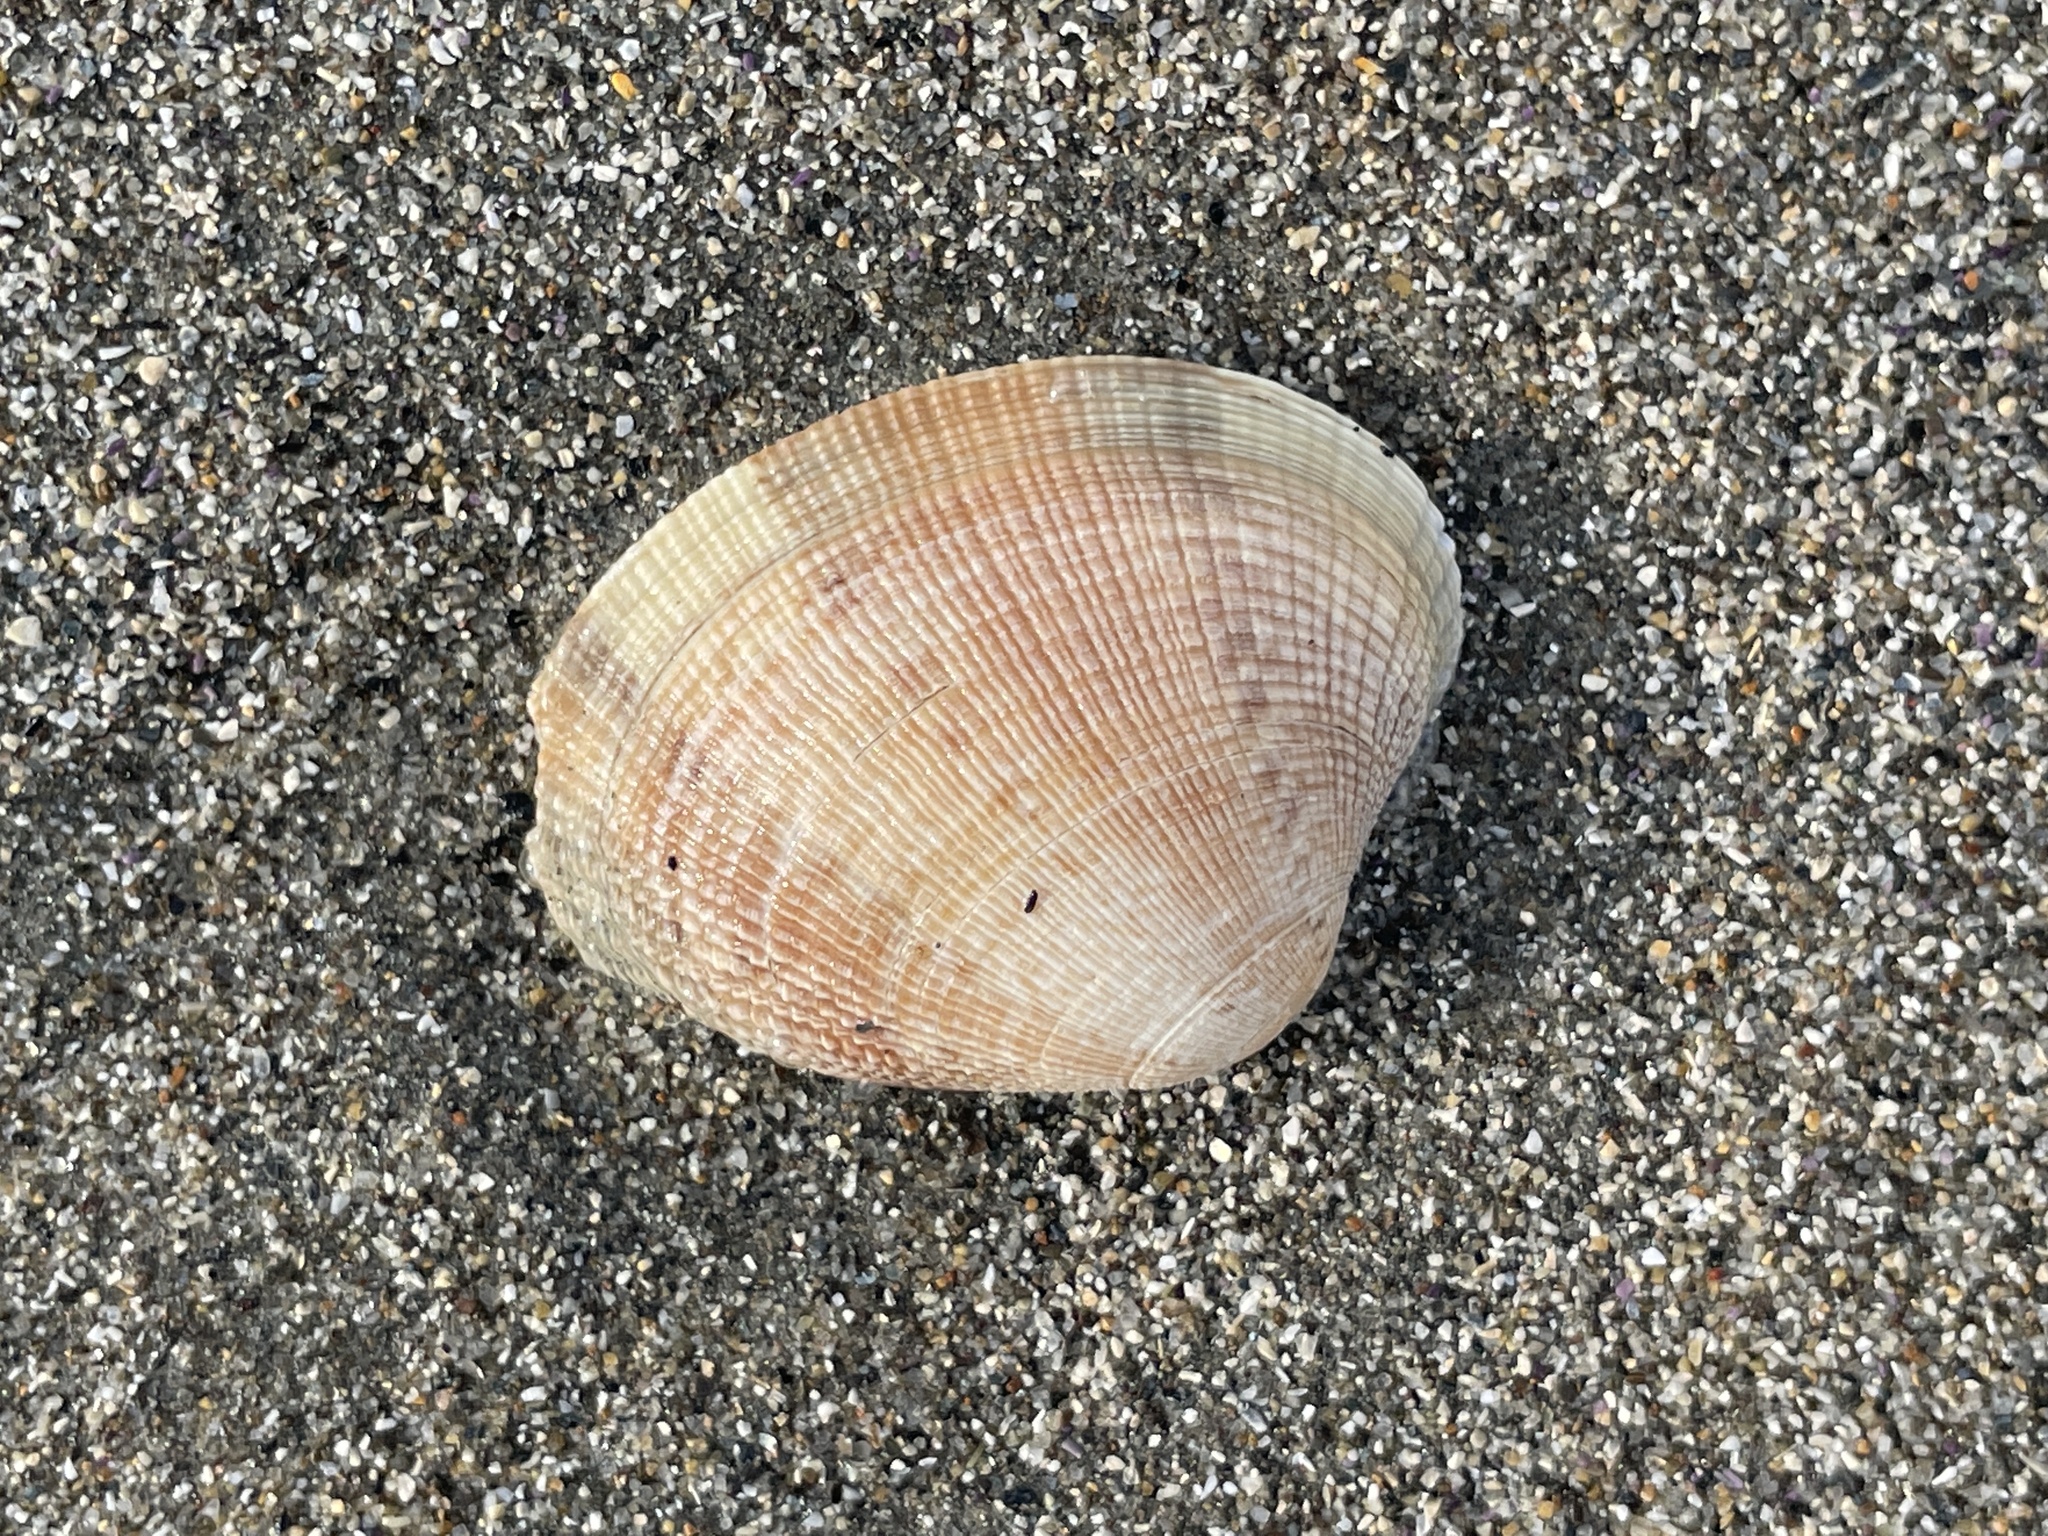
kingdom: Animalia
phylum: Mollusca
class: Bivalvia
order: Venerida
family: Veneridae
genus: Ruditapes
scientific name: Ruditapes philippinarum
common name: Manila clam
